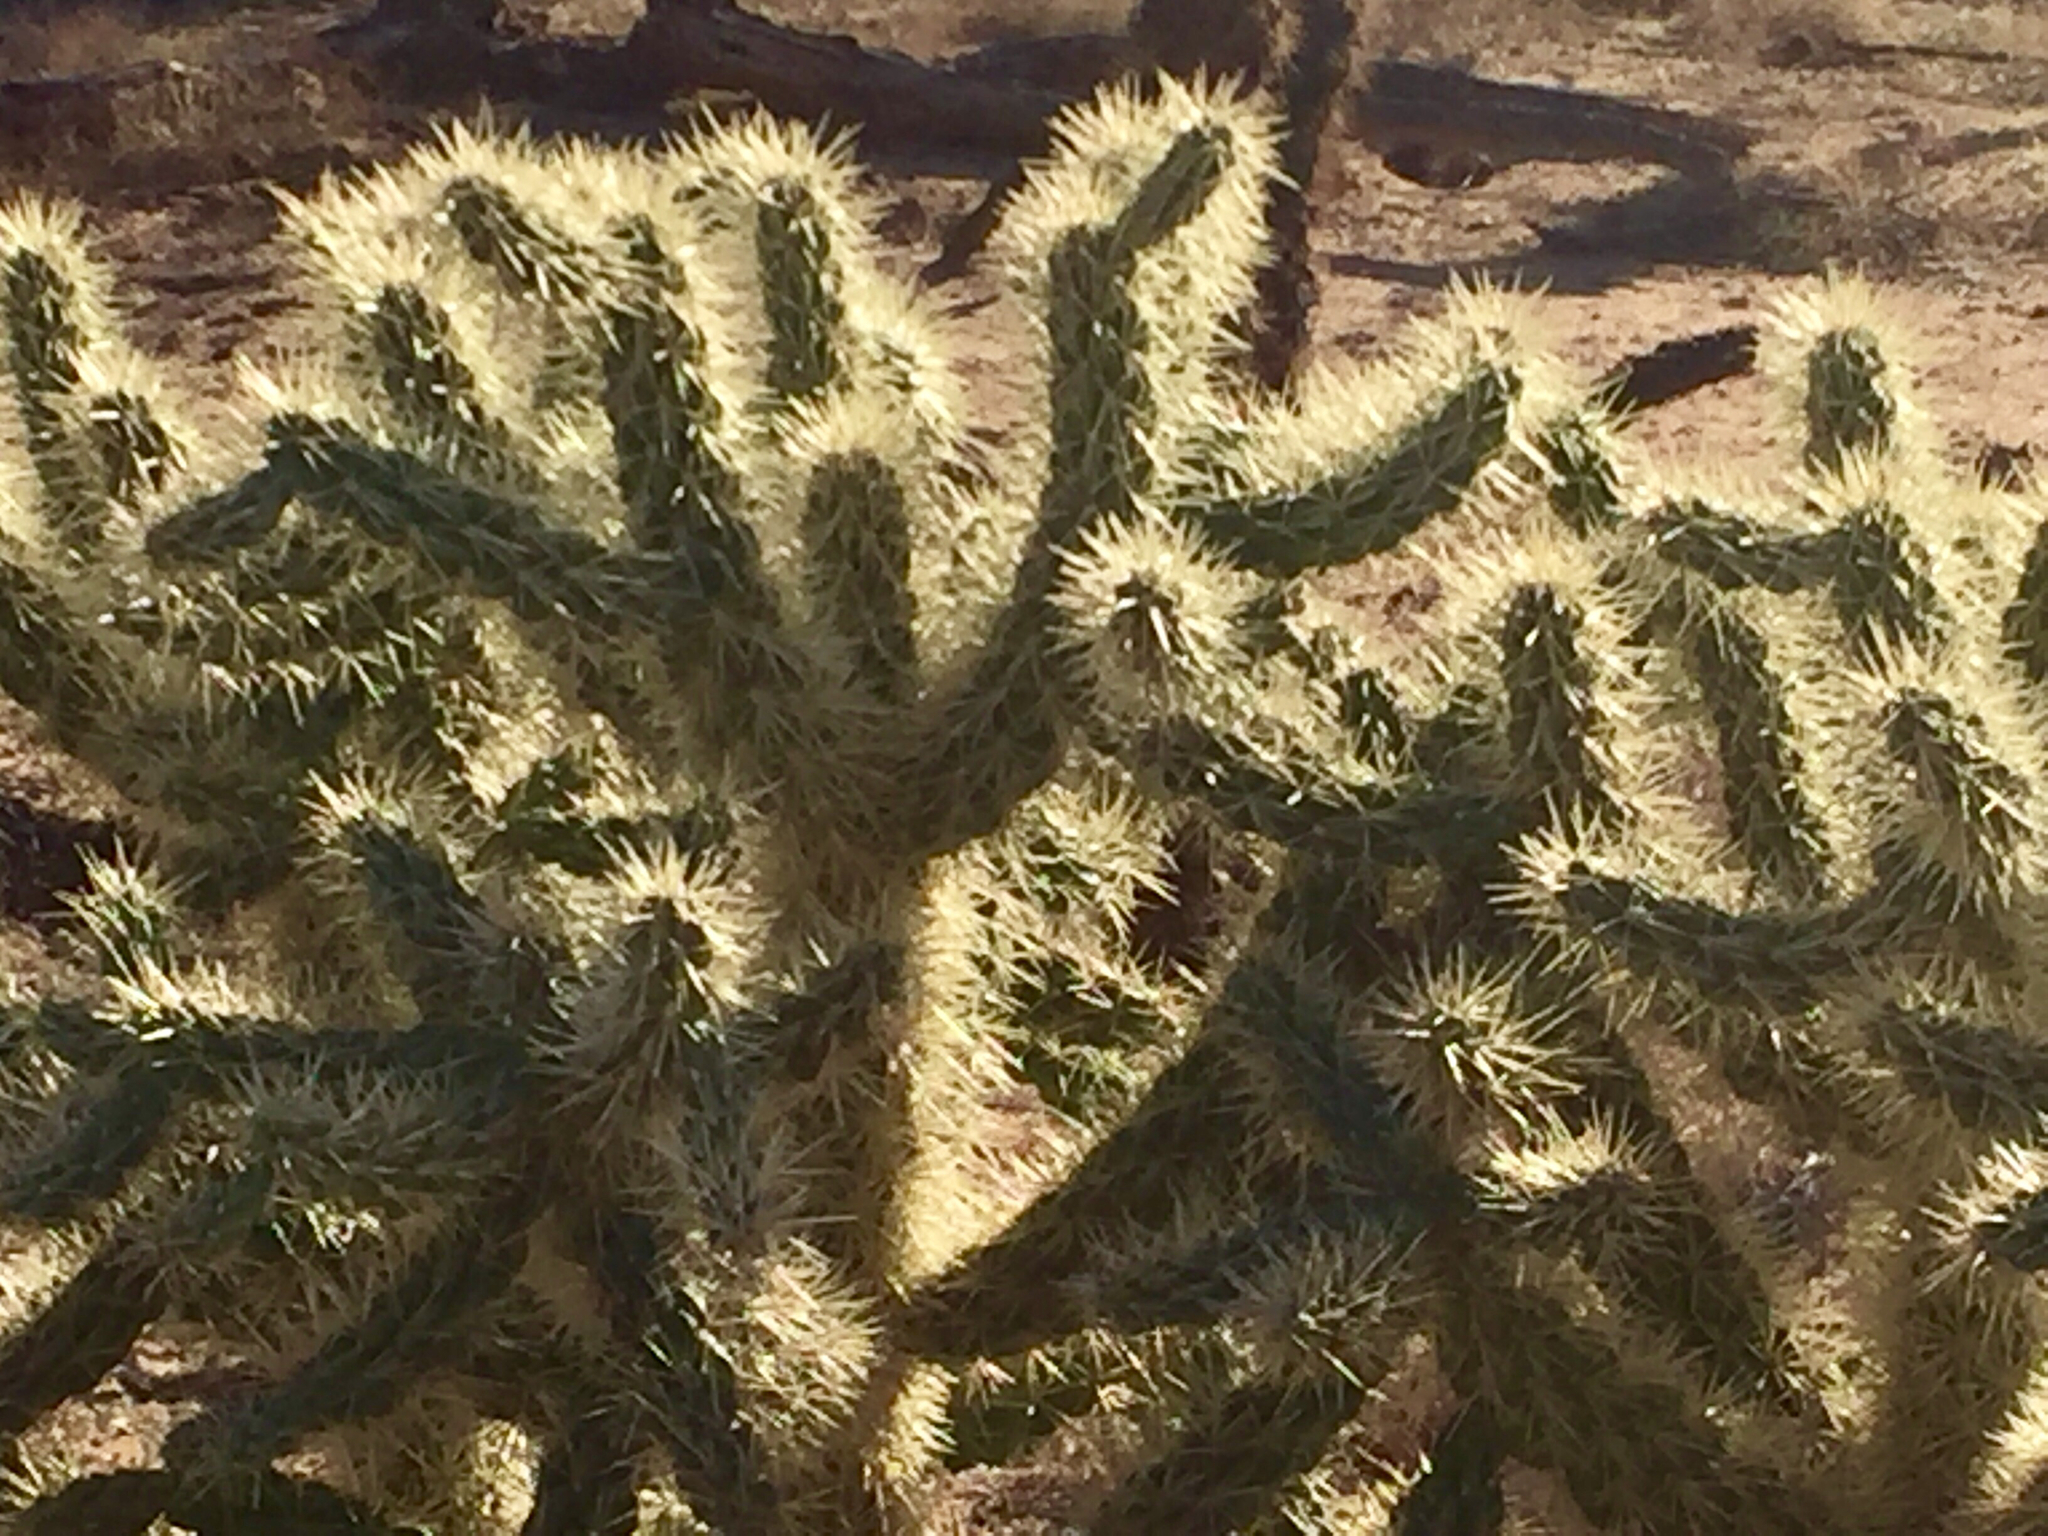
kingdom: Plantae
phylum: Tracheophyta
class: Magnoliopsida
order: Caryophyllales
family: Cactaceae
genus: Cylindropuntia
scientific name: Cylindropuntia fulgida
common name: Jumping cholla
